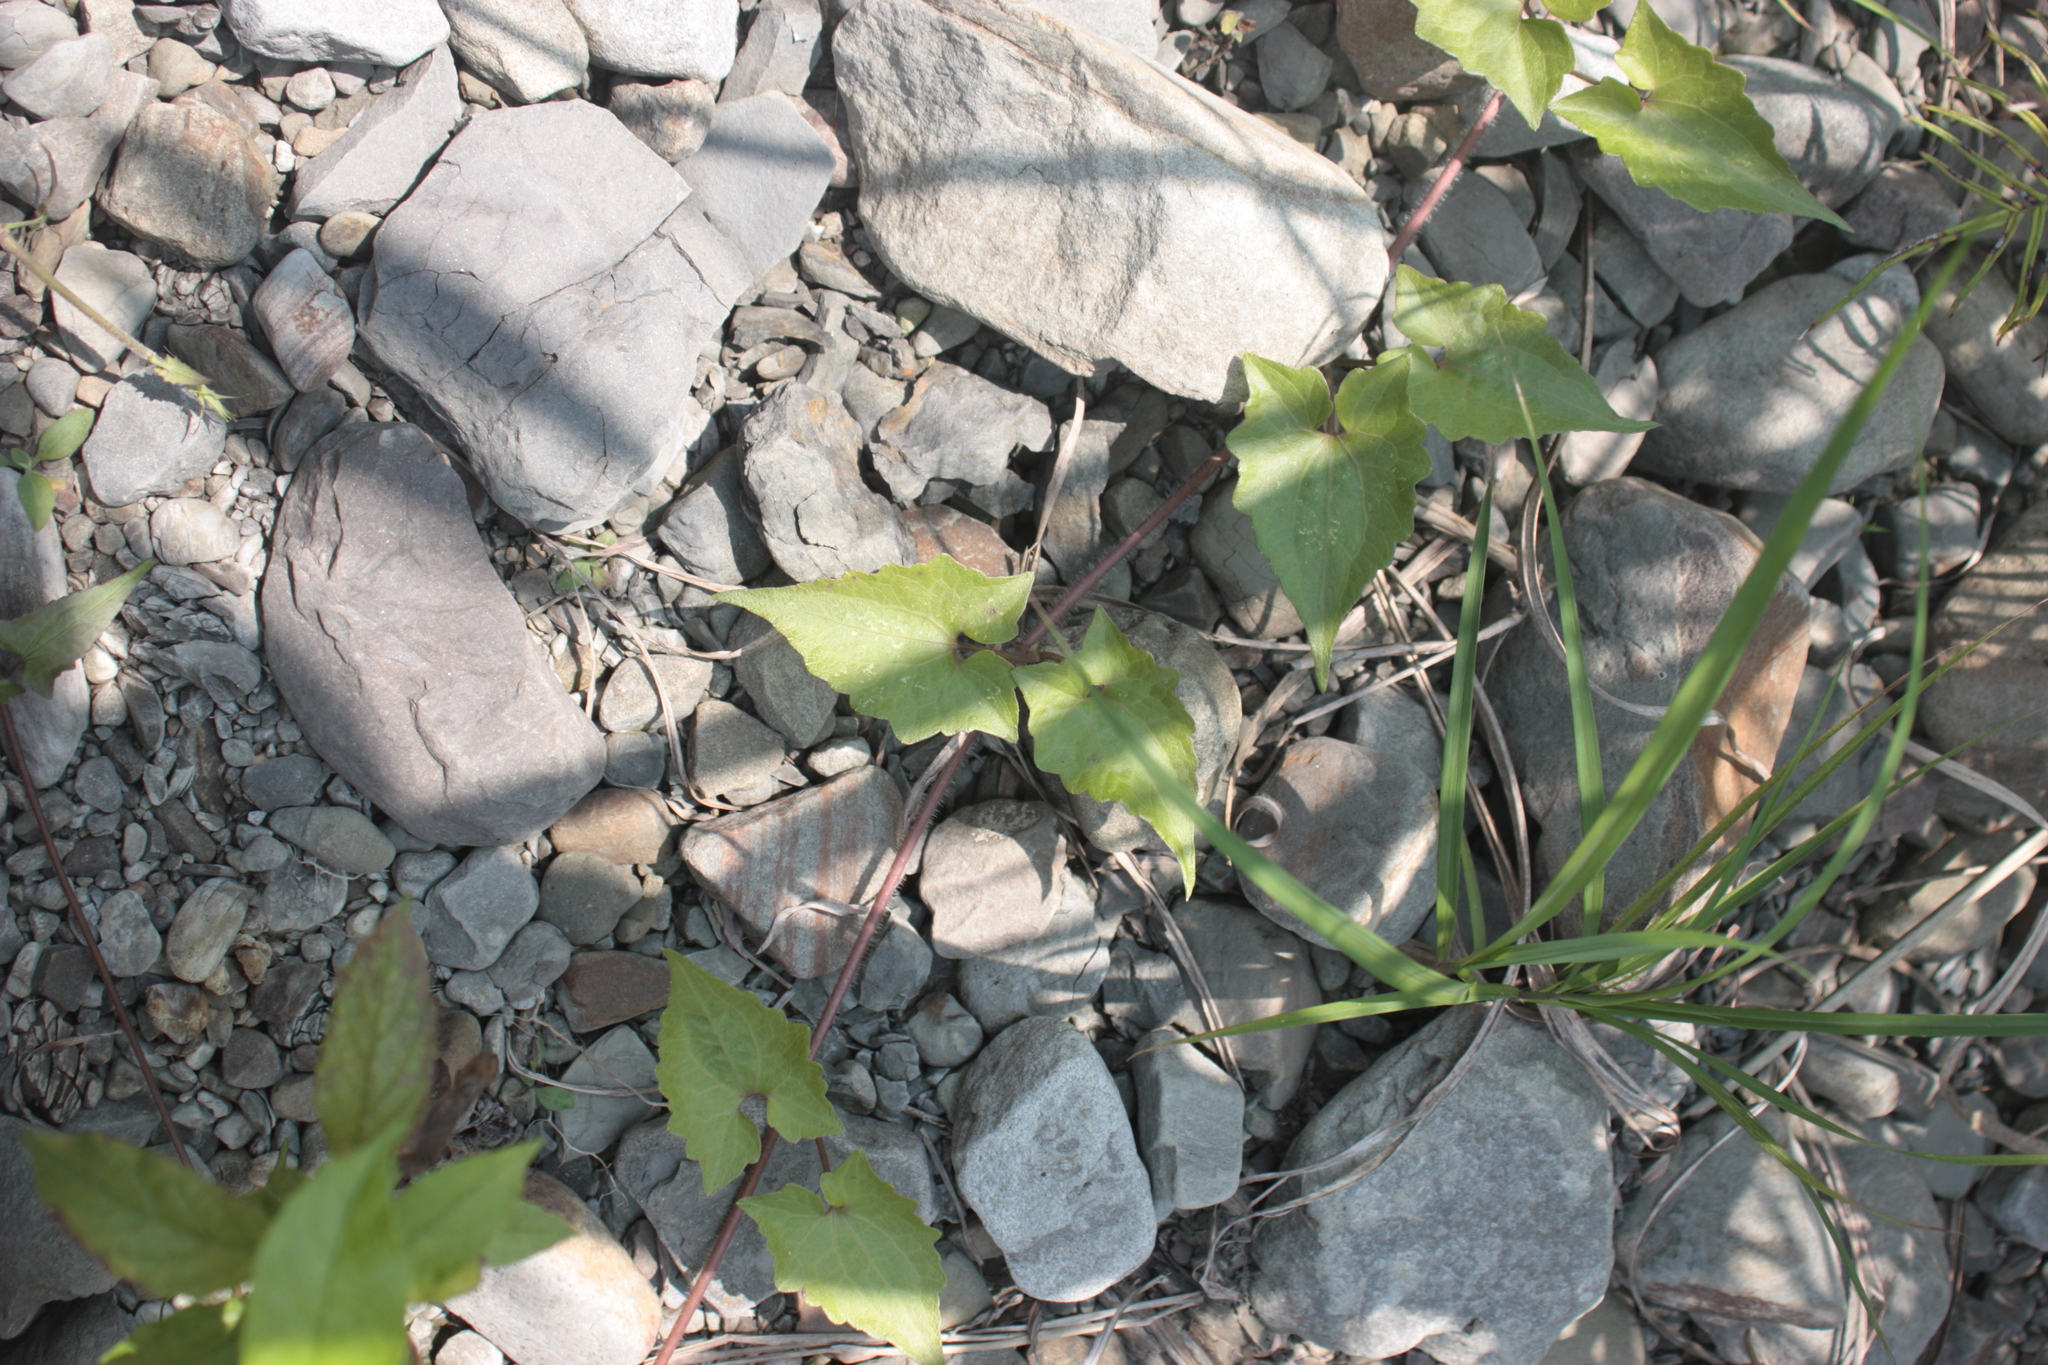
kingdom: Plantae
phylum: Tracheophyta
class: Magnoliopsida
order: Asterales
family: Asteraceae
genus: Mikania
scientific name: Mikania micrantha
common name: Mile-a-minute
